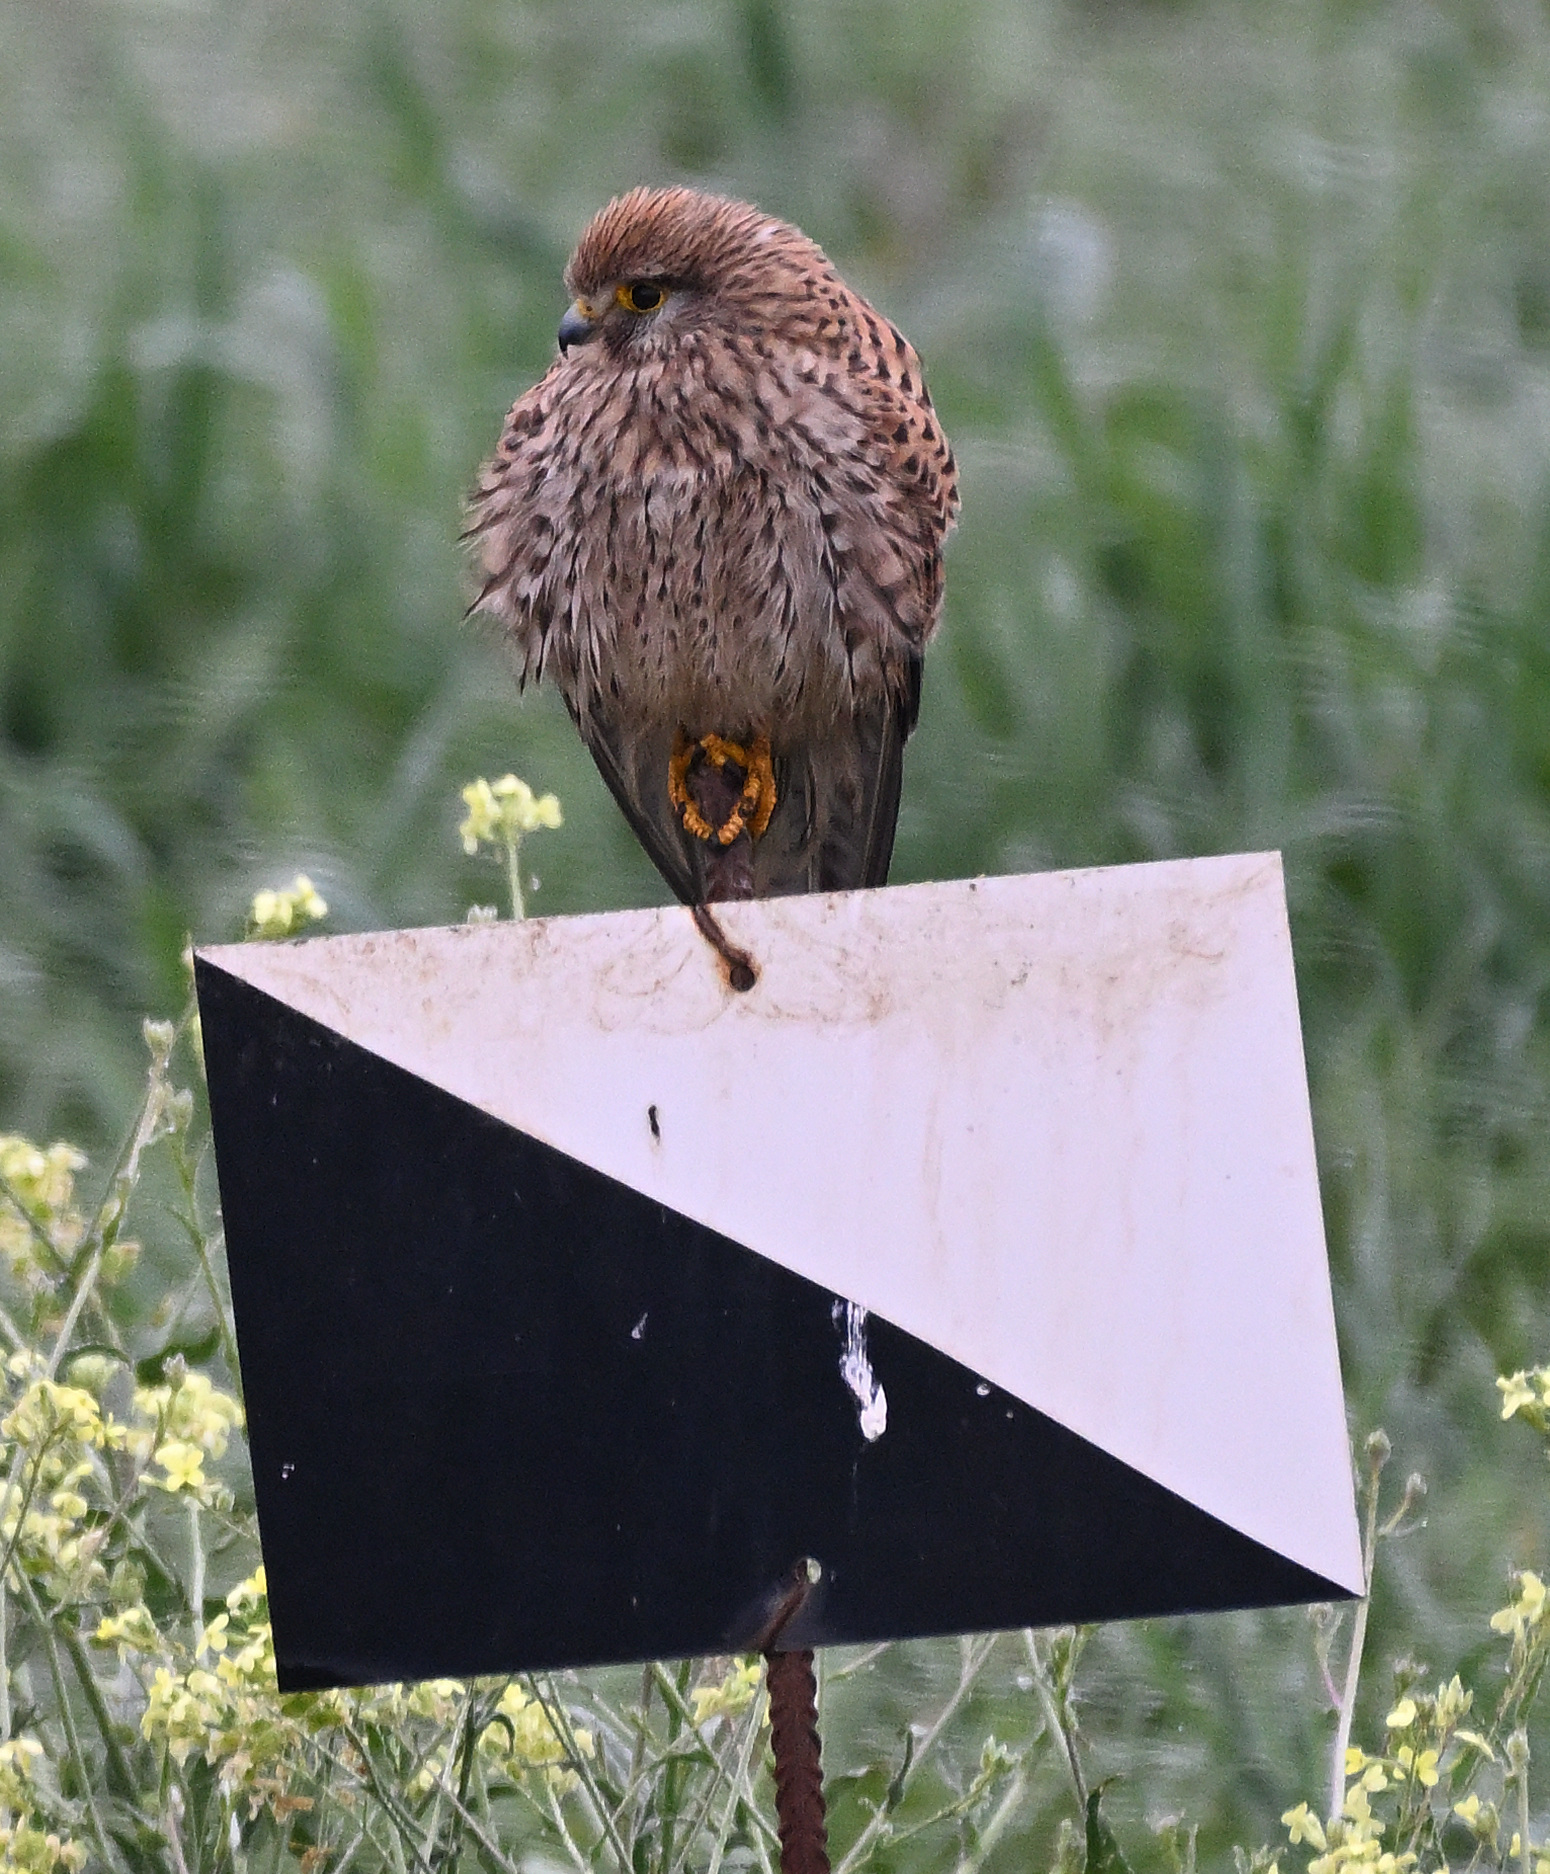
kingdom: Animalia
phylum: Chordata
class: Aves
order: Falconiformes
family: Falconidae
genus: Falco
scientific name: Falco tinnunculus
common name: Common kestrel
